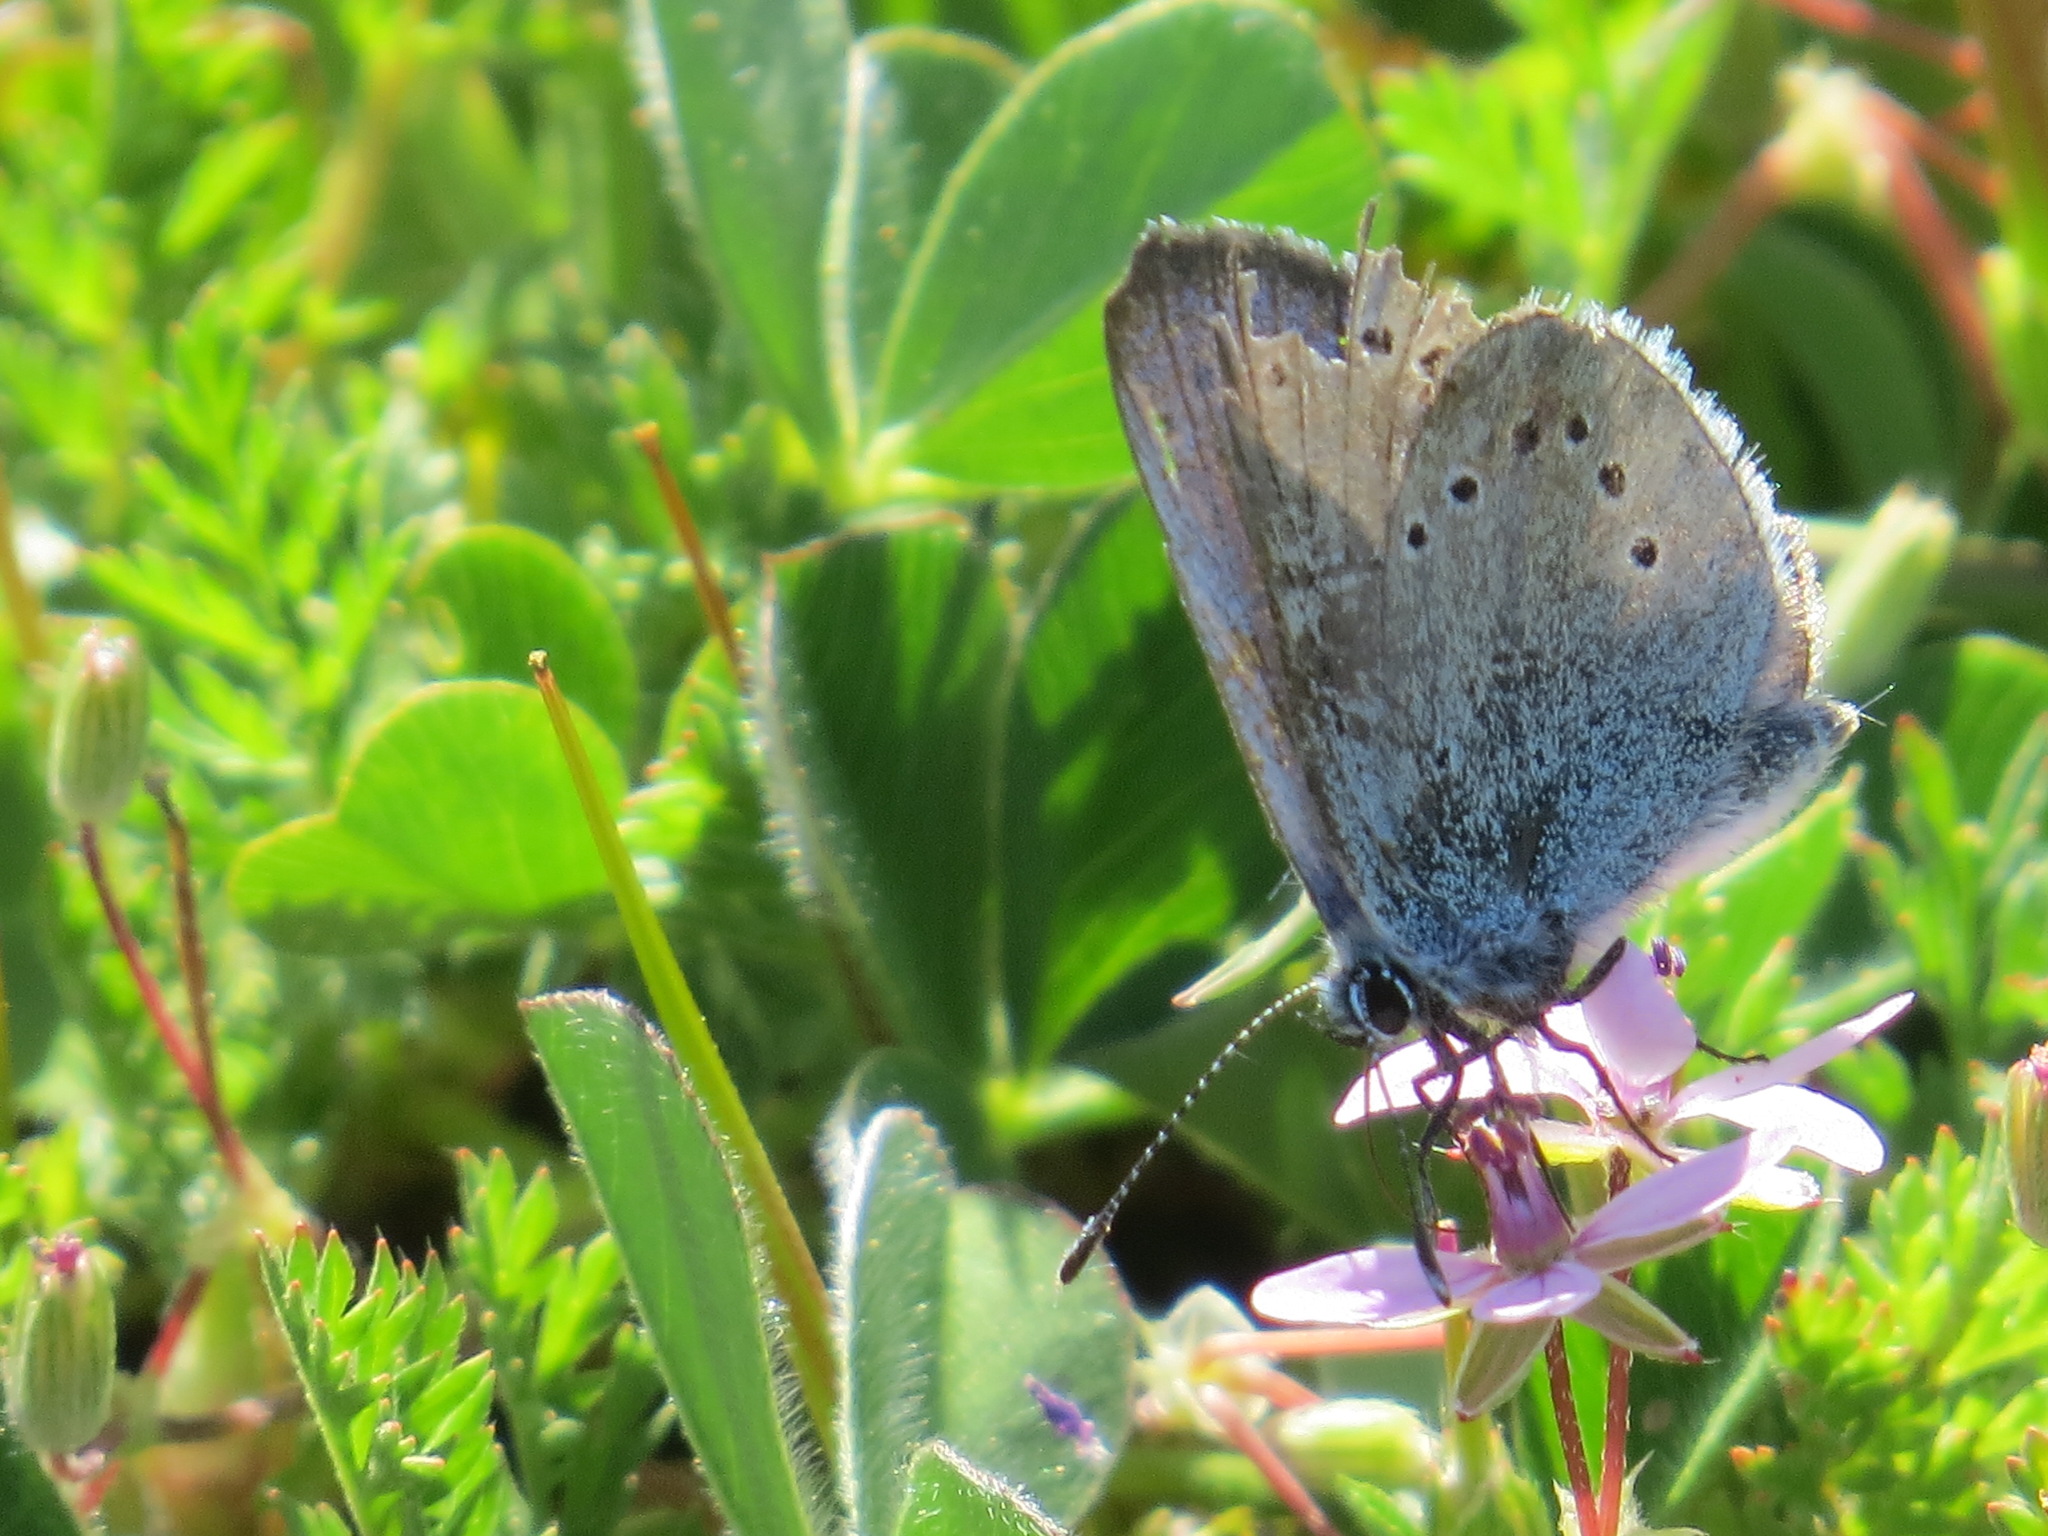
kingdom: Animalia
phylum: Arthropoda
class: Insecta
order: Lepidoptera
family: Lycaenidae
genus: Glaucopsyche
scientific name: Glaucopsyche lygdamus
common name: Silvery blue
